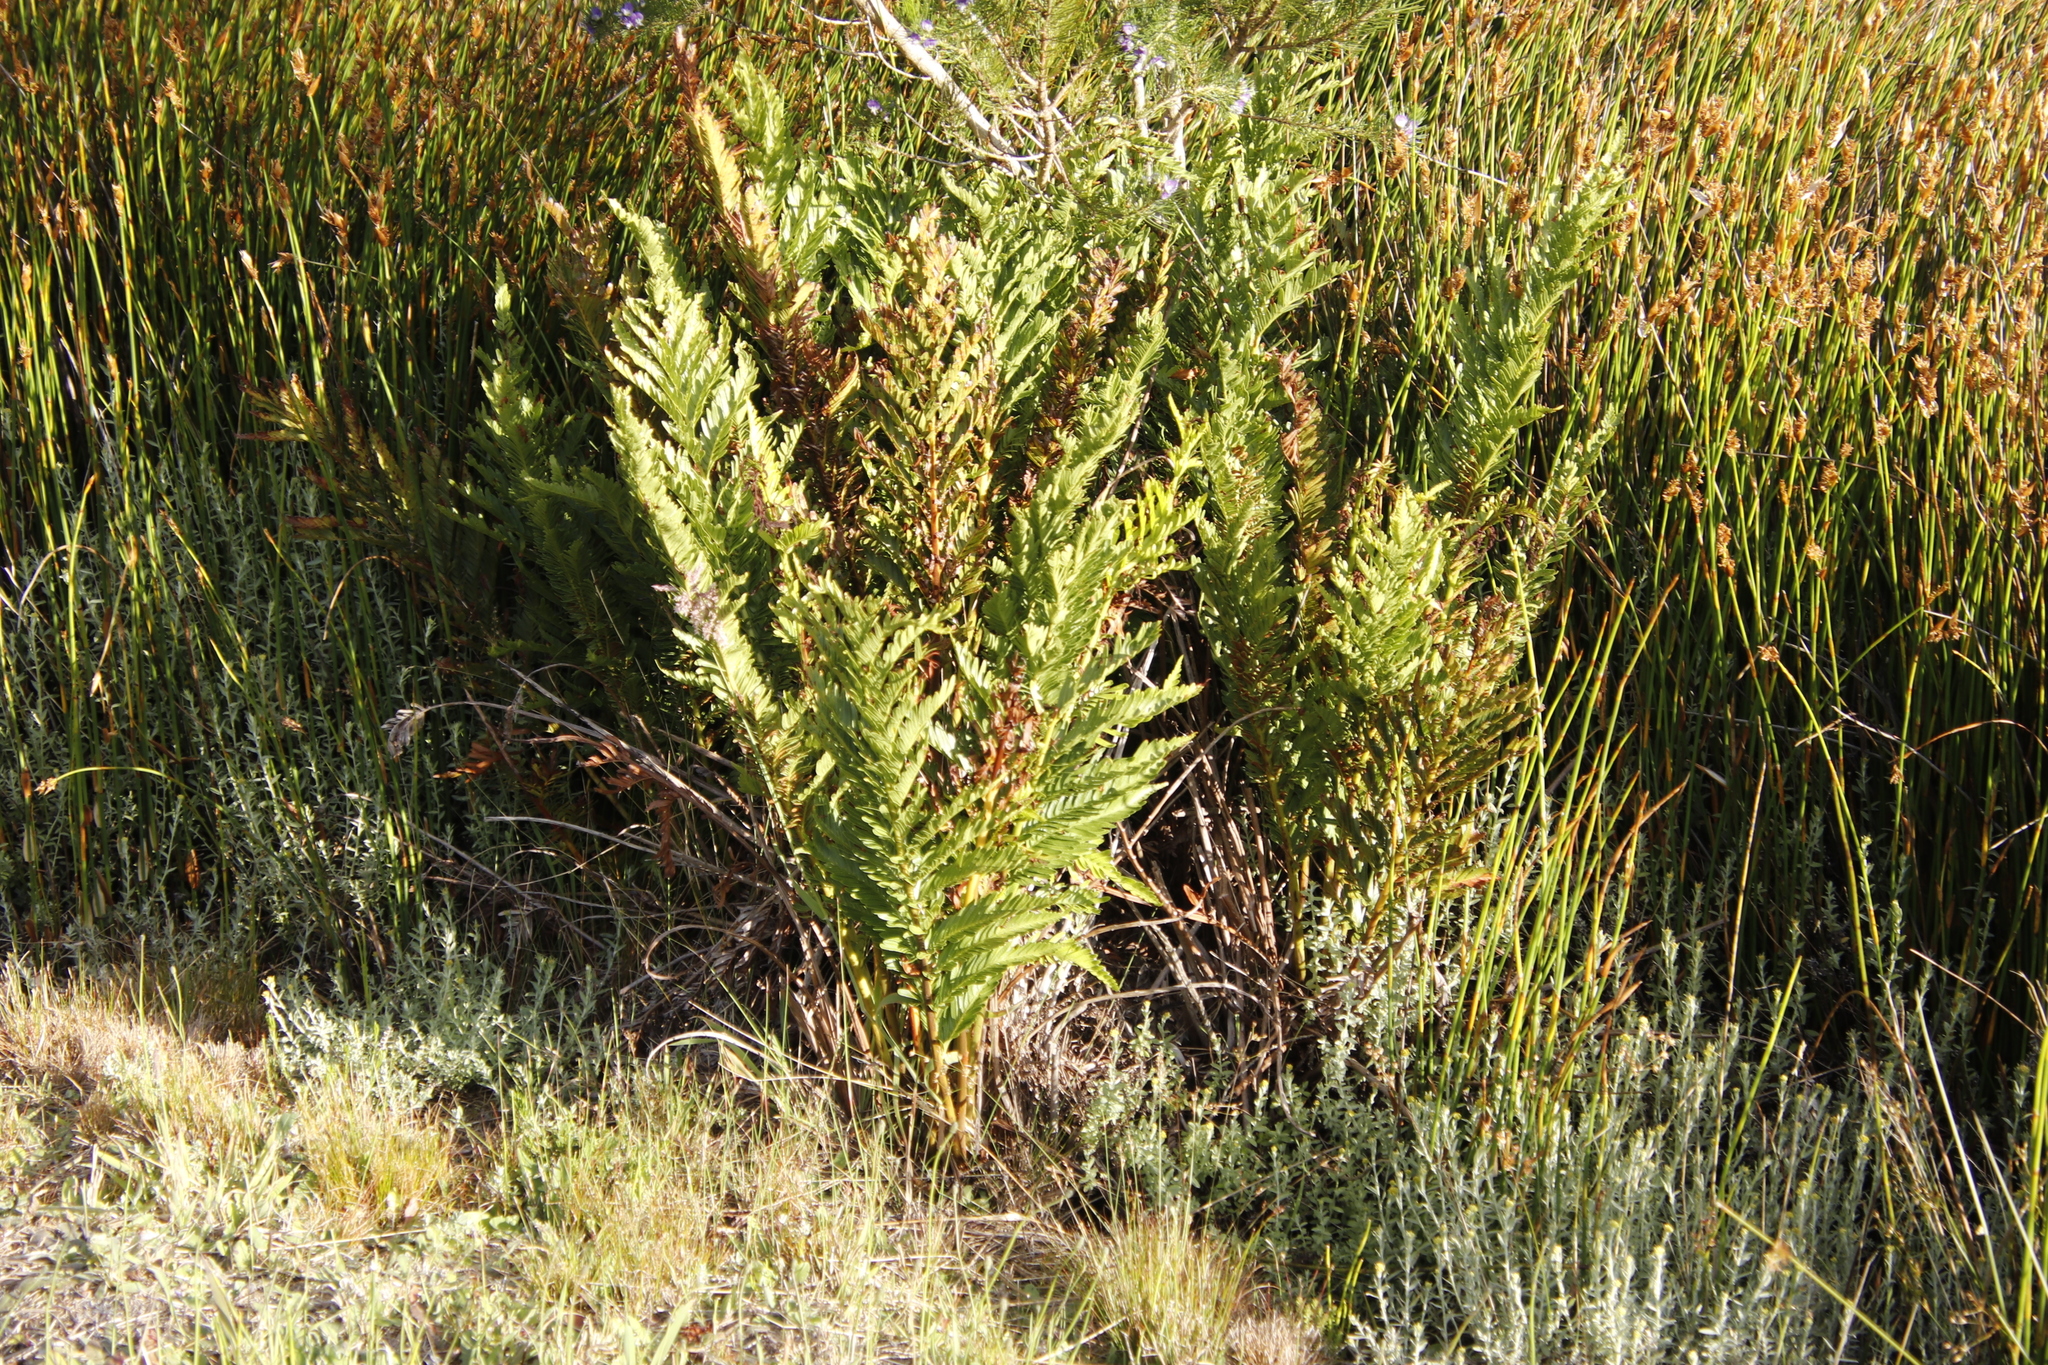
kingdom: Plantae
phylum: Tracheophyta
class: Polypodiopsida
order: Osmundales
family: Osmundaceae
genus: Todea
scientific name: Todea barbara
